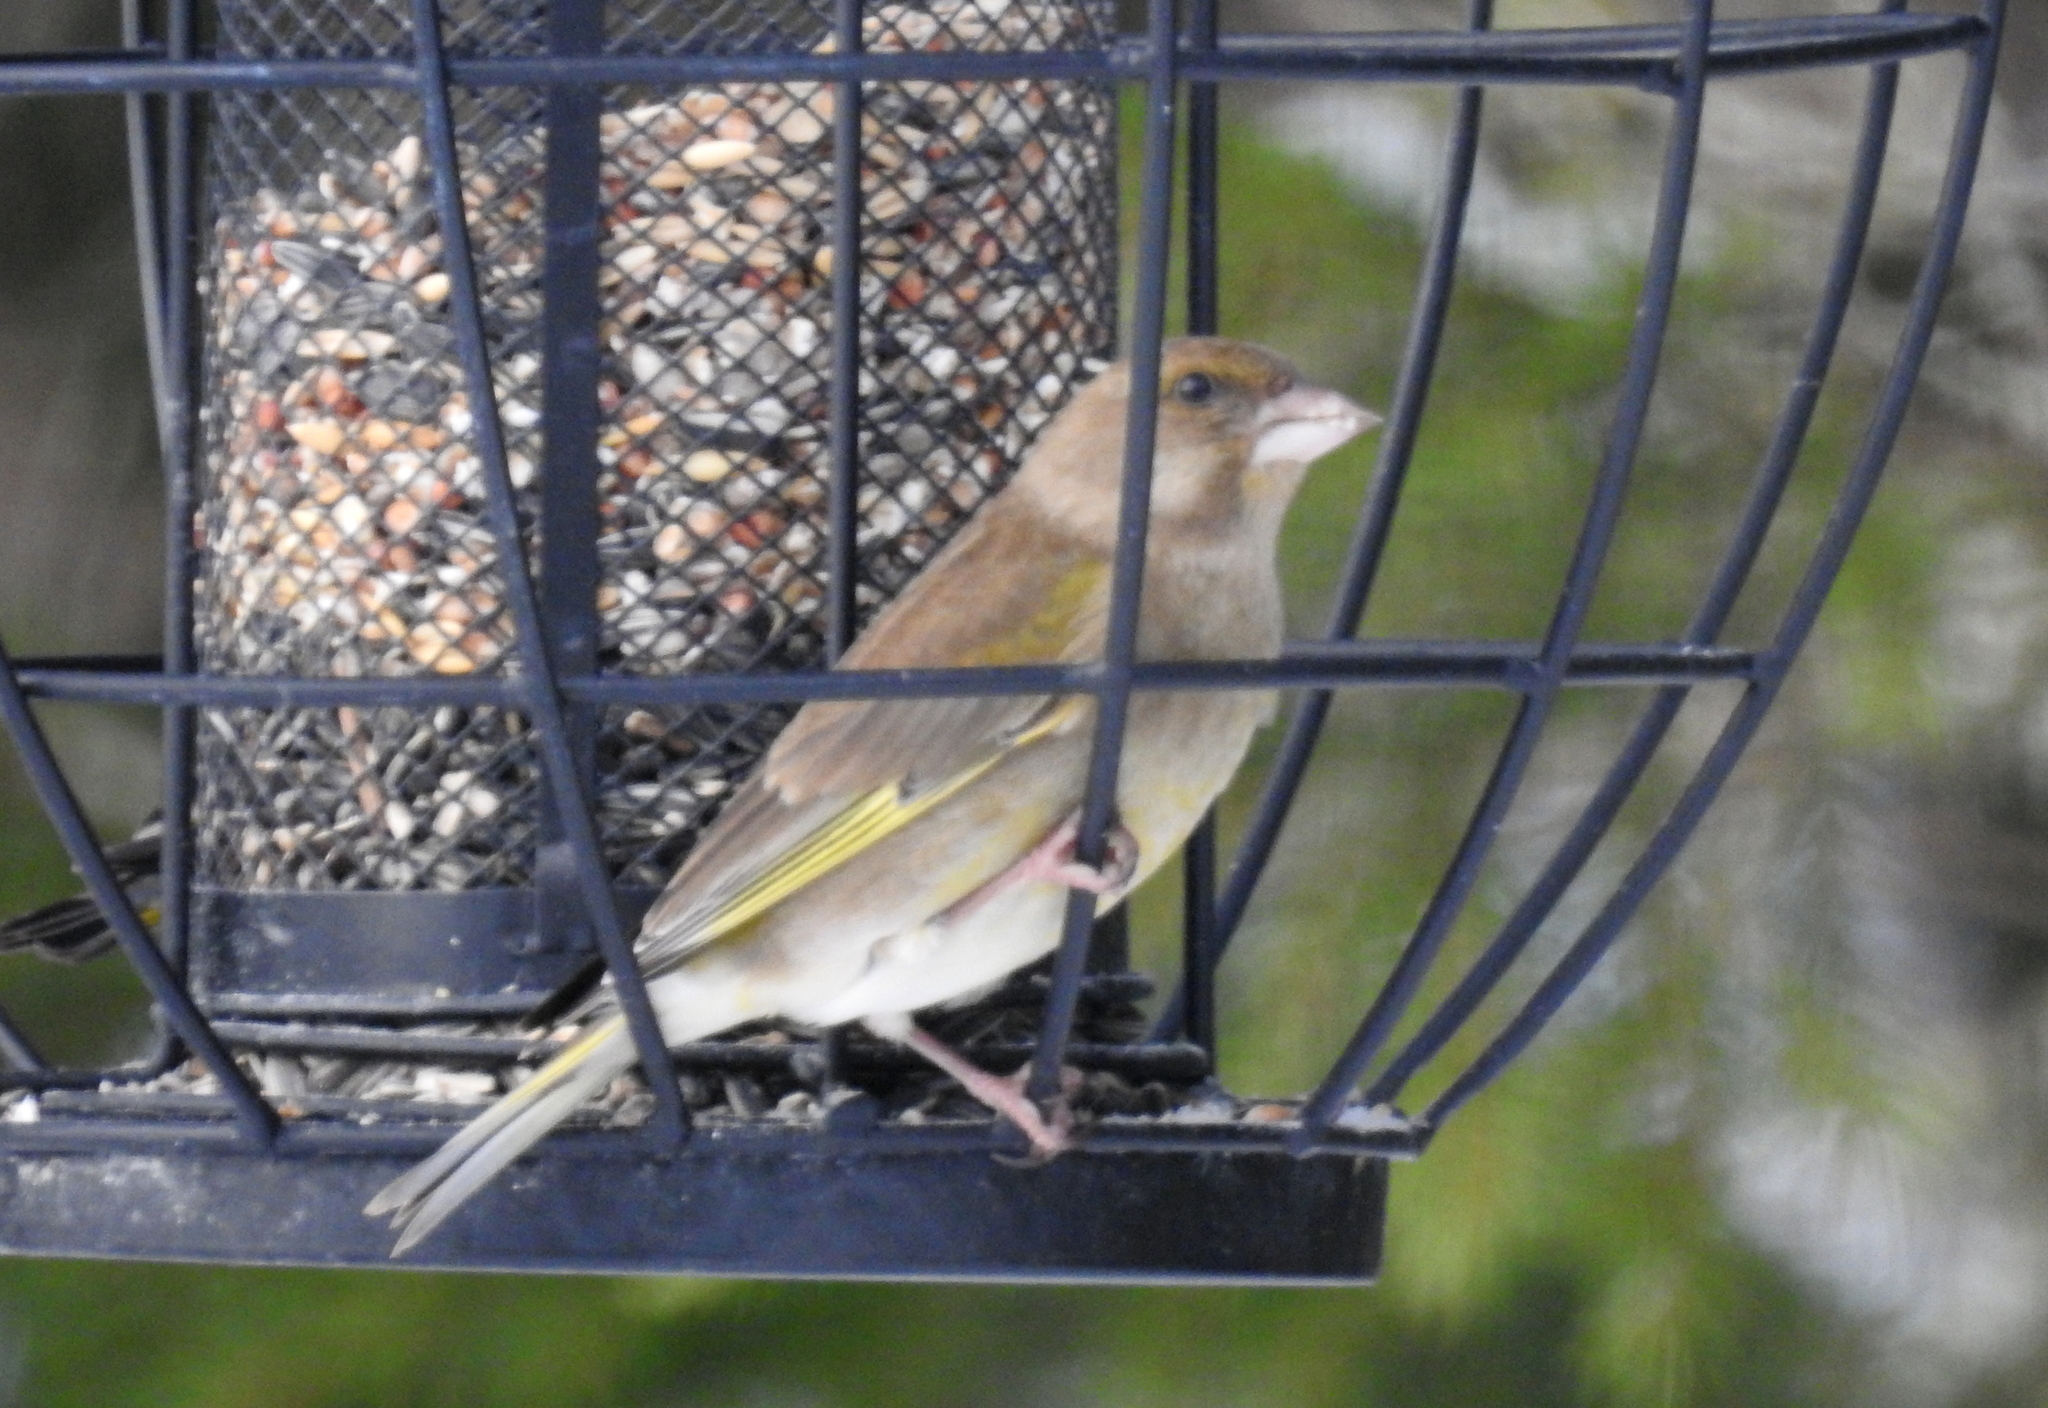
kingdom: Plantae
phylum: Tracheophyta
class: Liliopsida
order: Poales
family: Poaceae
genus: Chloris
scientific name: Chloris chloris
